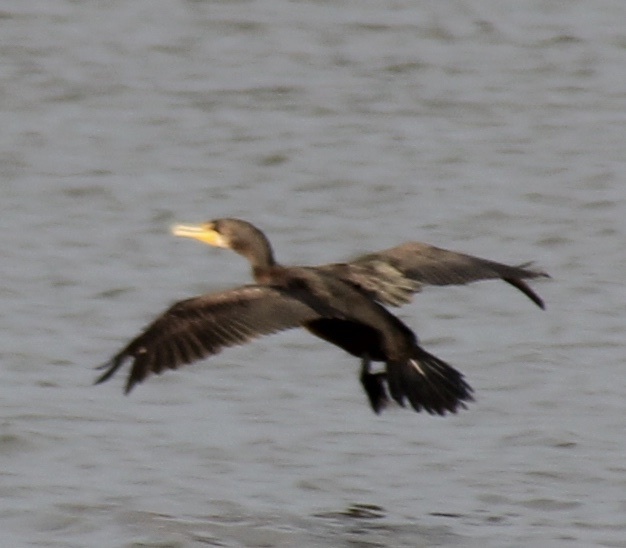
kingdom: Animalia
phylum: Chordata
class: Aves
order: Suliformes
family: Phalacrocoracidae
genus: Phalacrocorax
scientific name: Phalacrocorax auritus
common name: Double-crested cormorant
